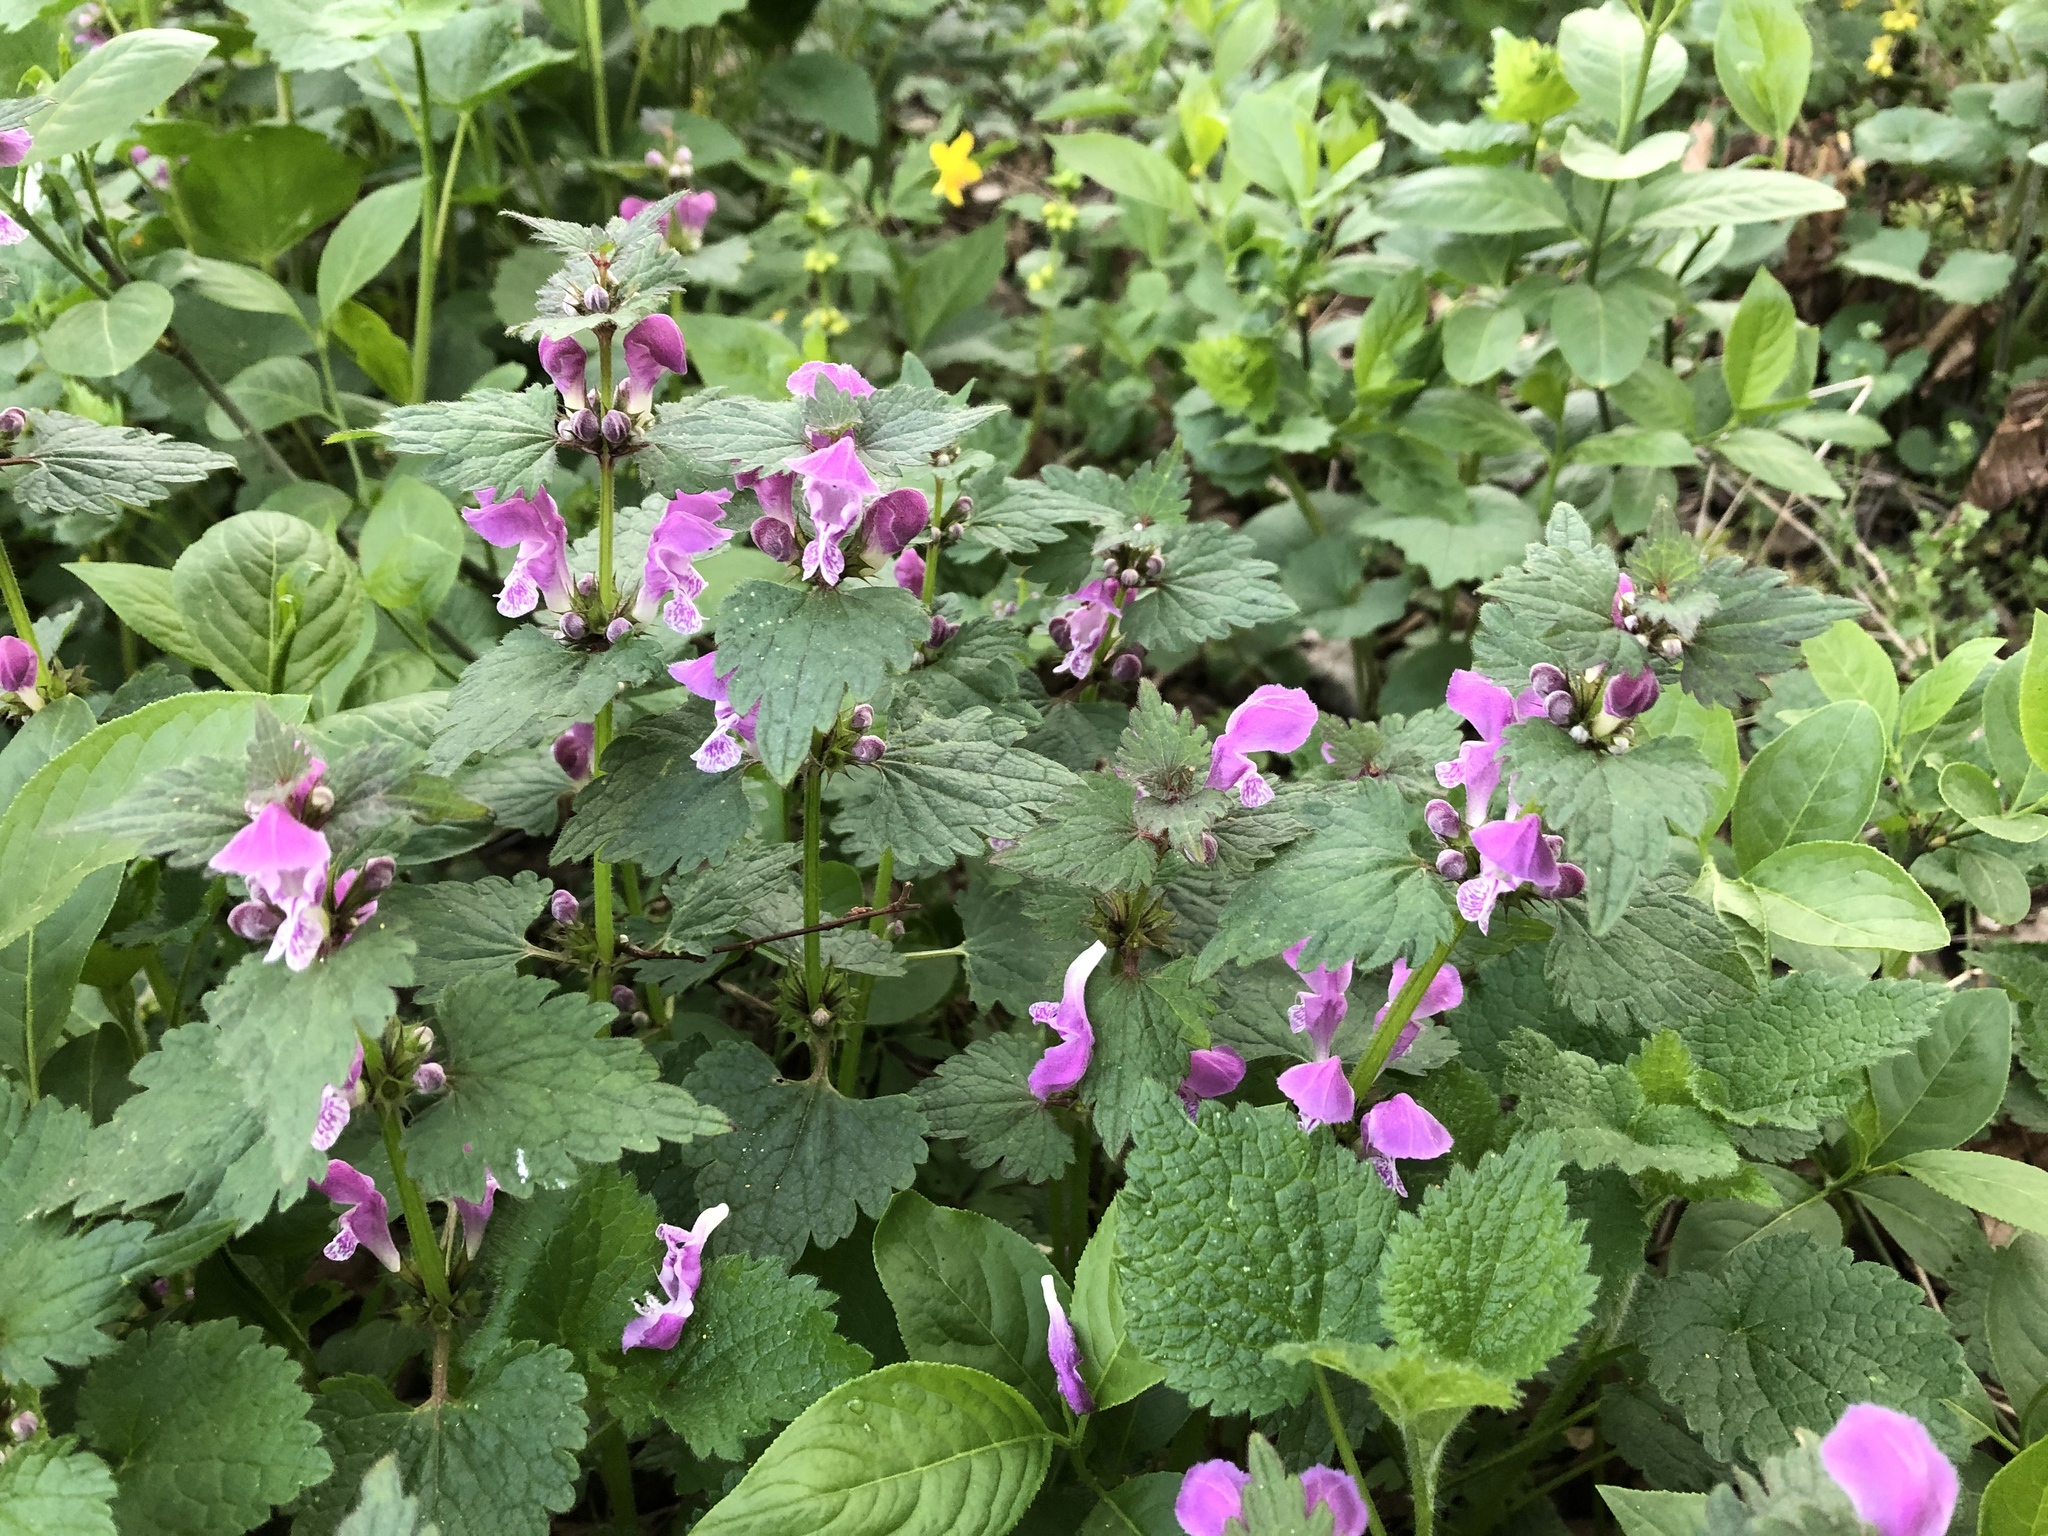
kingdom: Plantae
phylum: Tracheophyta
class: Magnoliopsida
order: Lamiales
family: Lamiaceae
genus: Lamium
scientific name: Lamium maculatum
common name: Spotted dead-nettle
